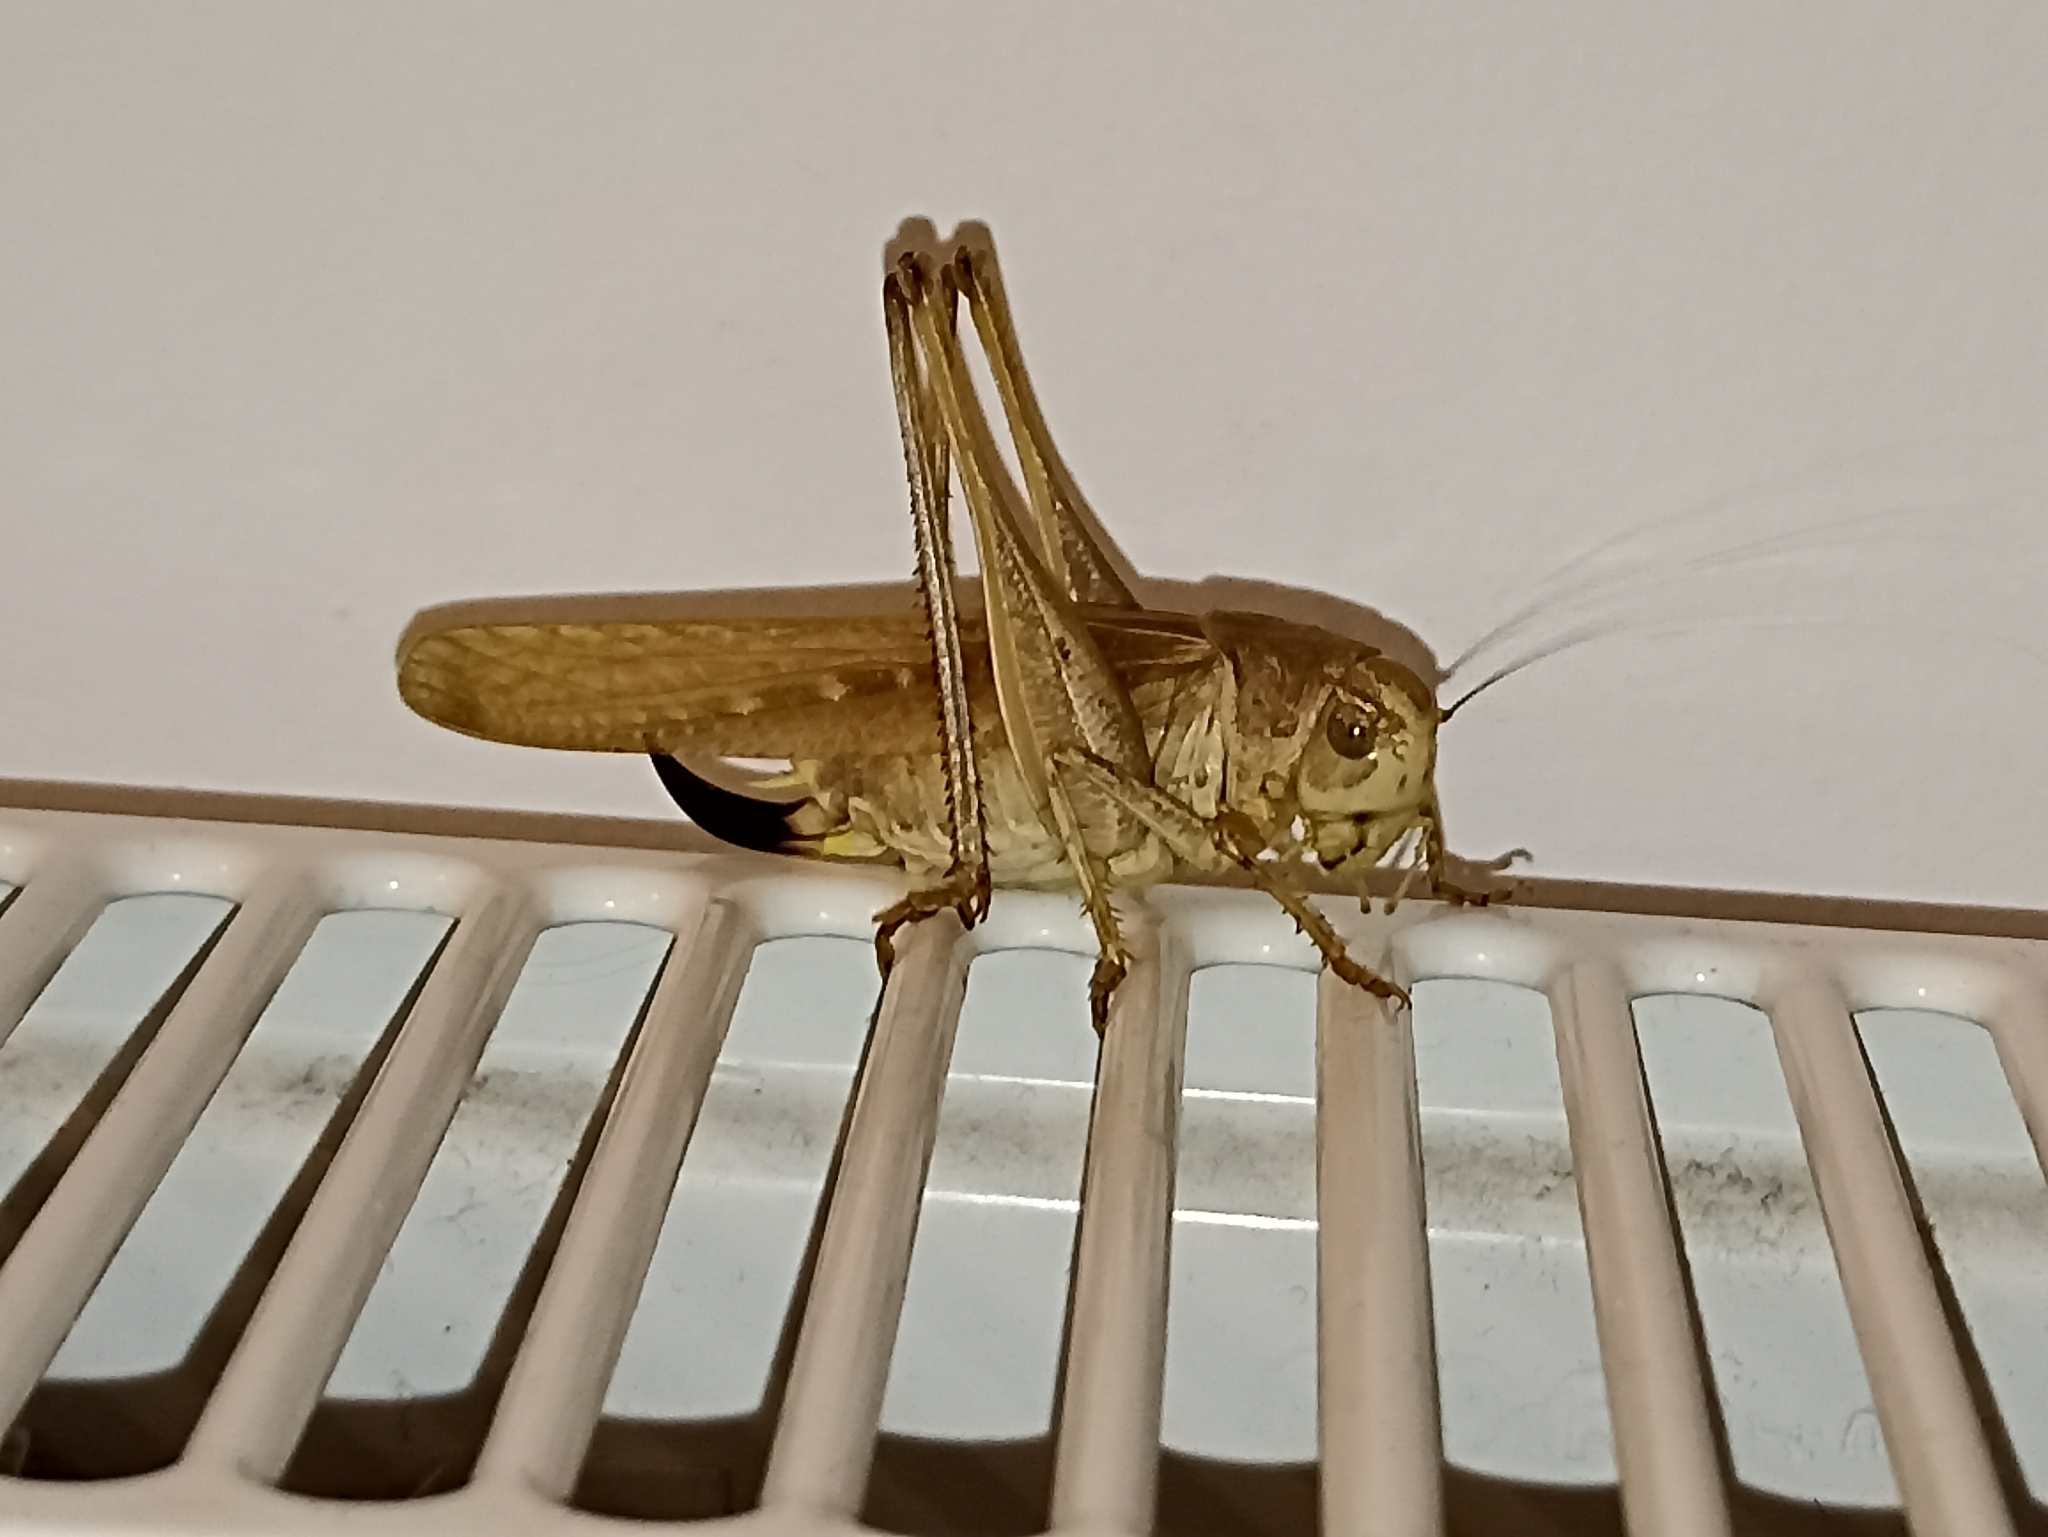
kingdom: Animalia
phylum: Arthropoda
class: Insecta
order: Orthoptera
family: Tettigoniidae
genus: Platycleis
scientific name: Platycleis falx
